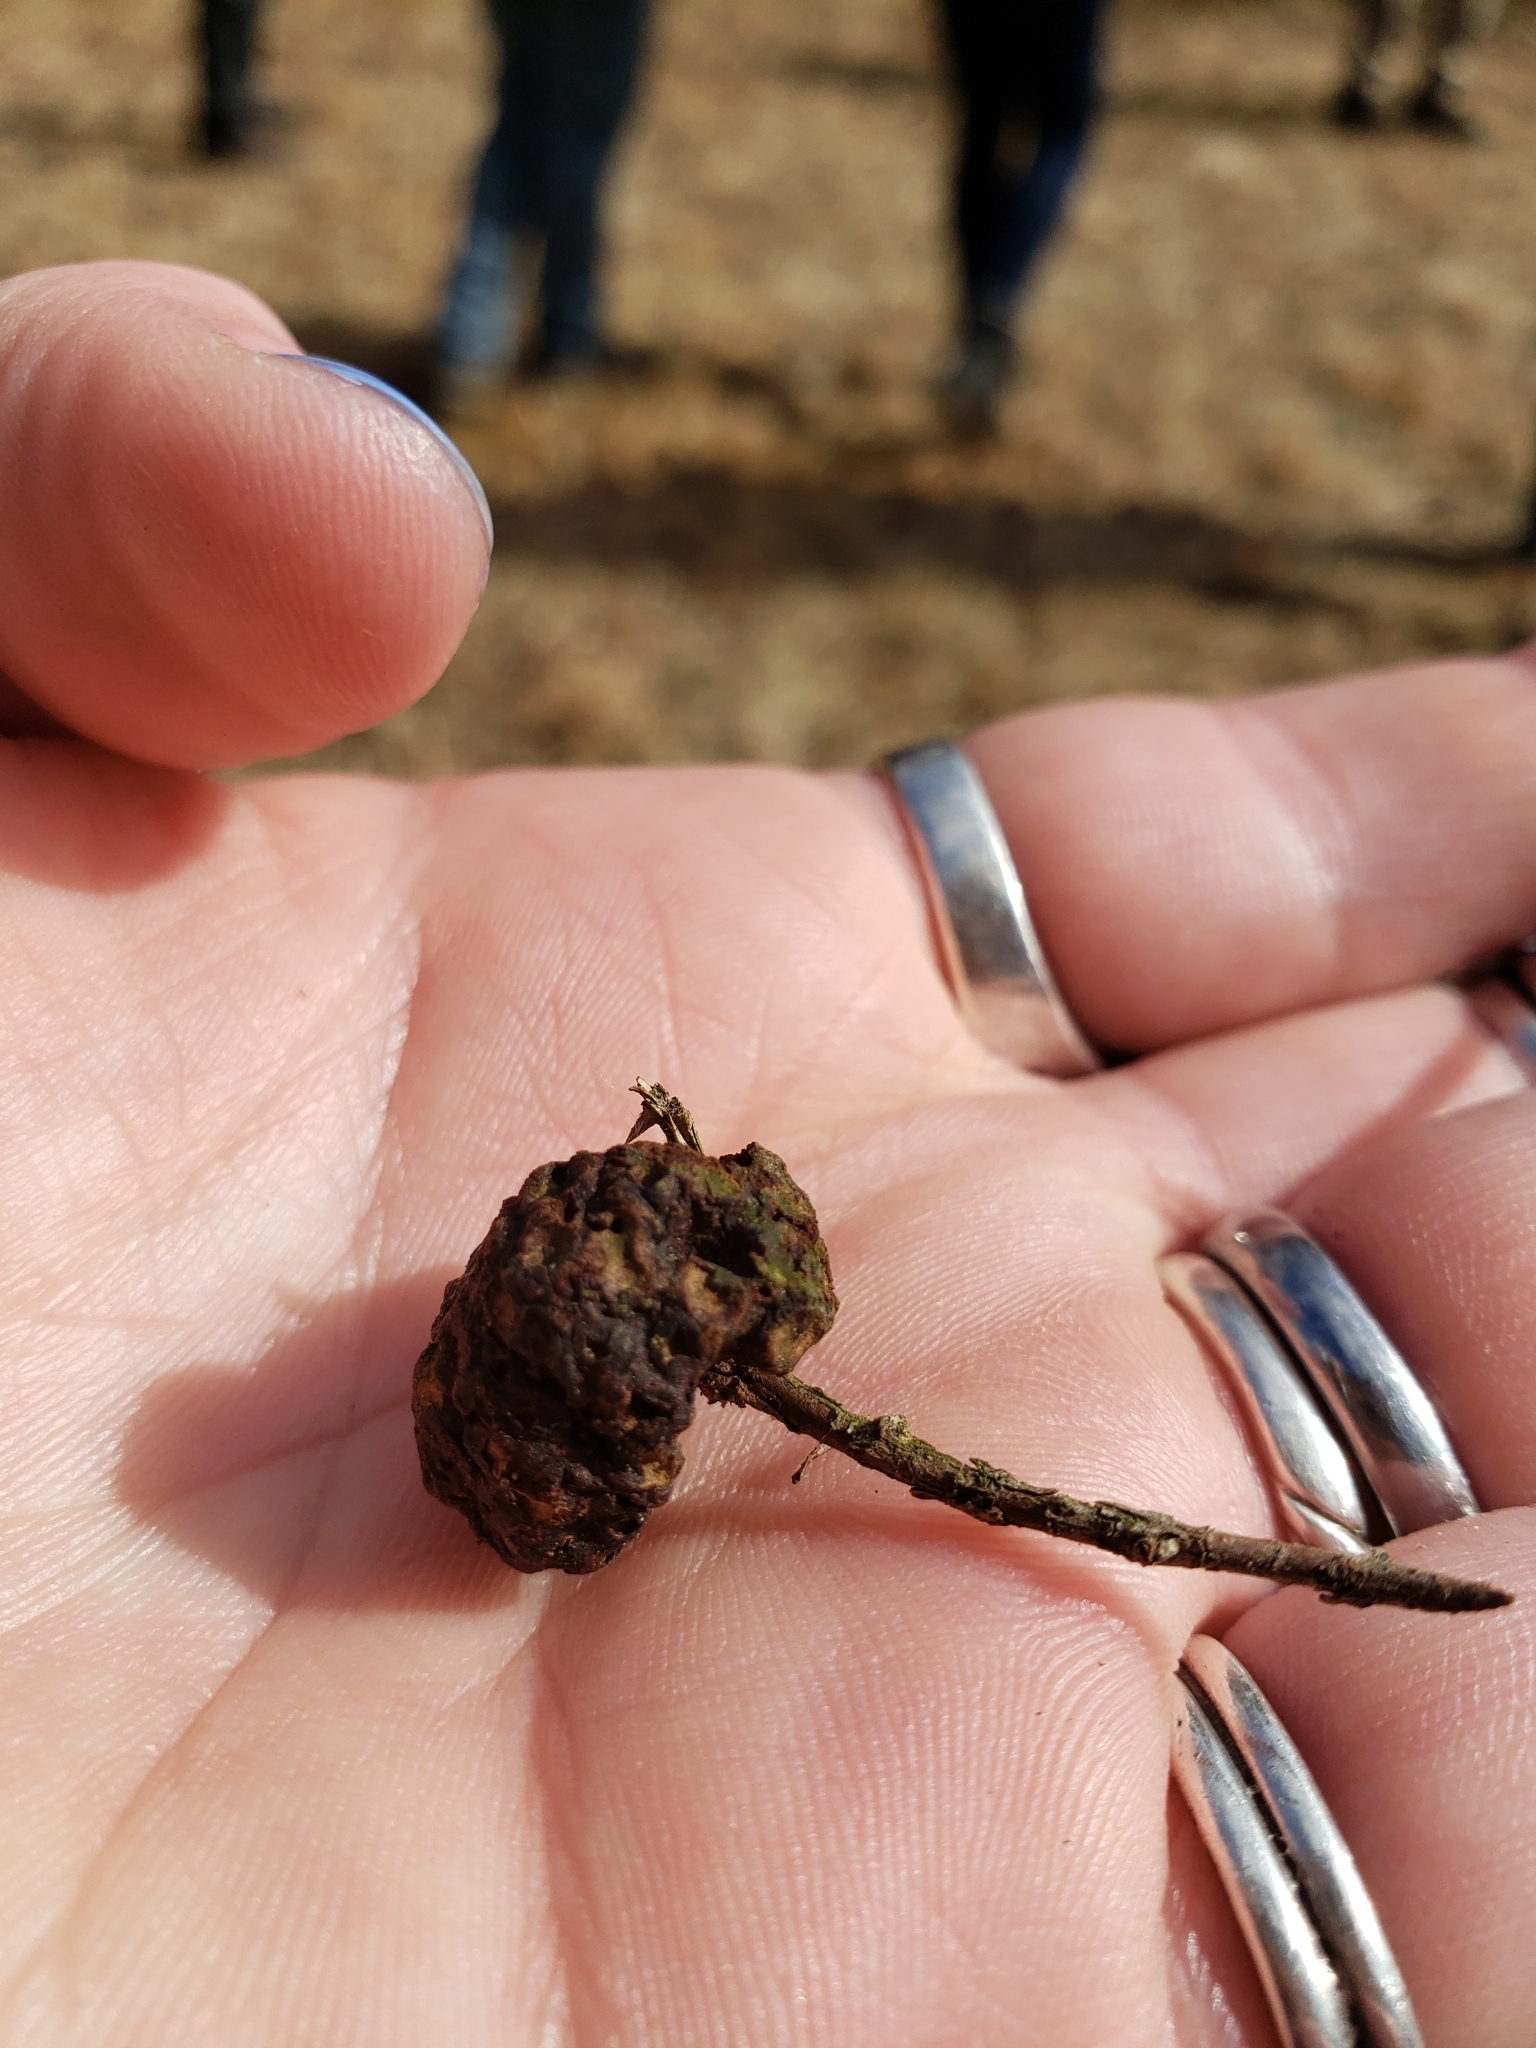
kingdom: Fungi
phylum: Basidiomycota
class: Pucciniomycetes
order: Pucciniales
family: Gymnosporangiaceae
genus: Gymnosporangium
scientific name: Gymnosporangium juniperi-virginianae
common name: Juniper-apple rust
